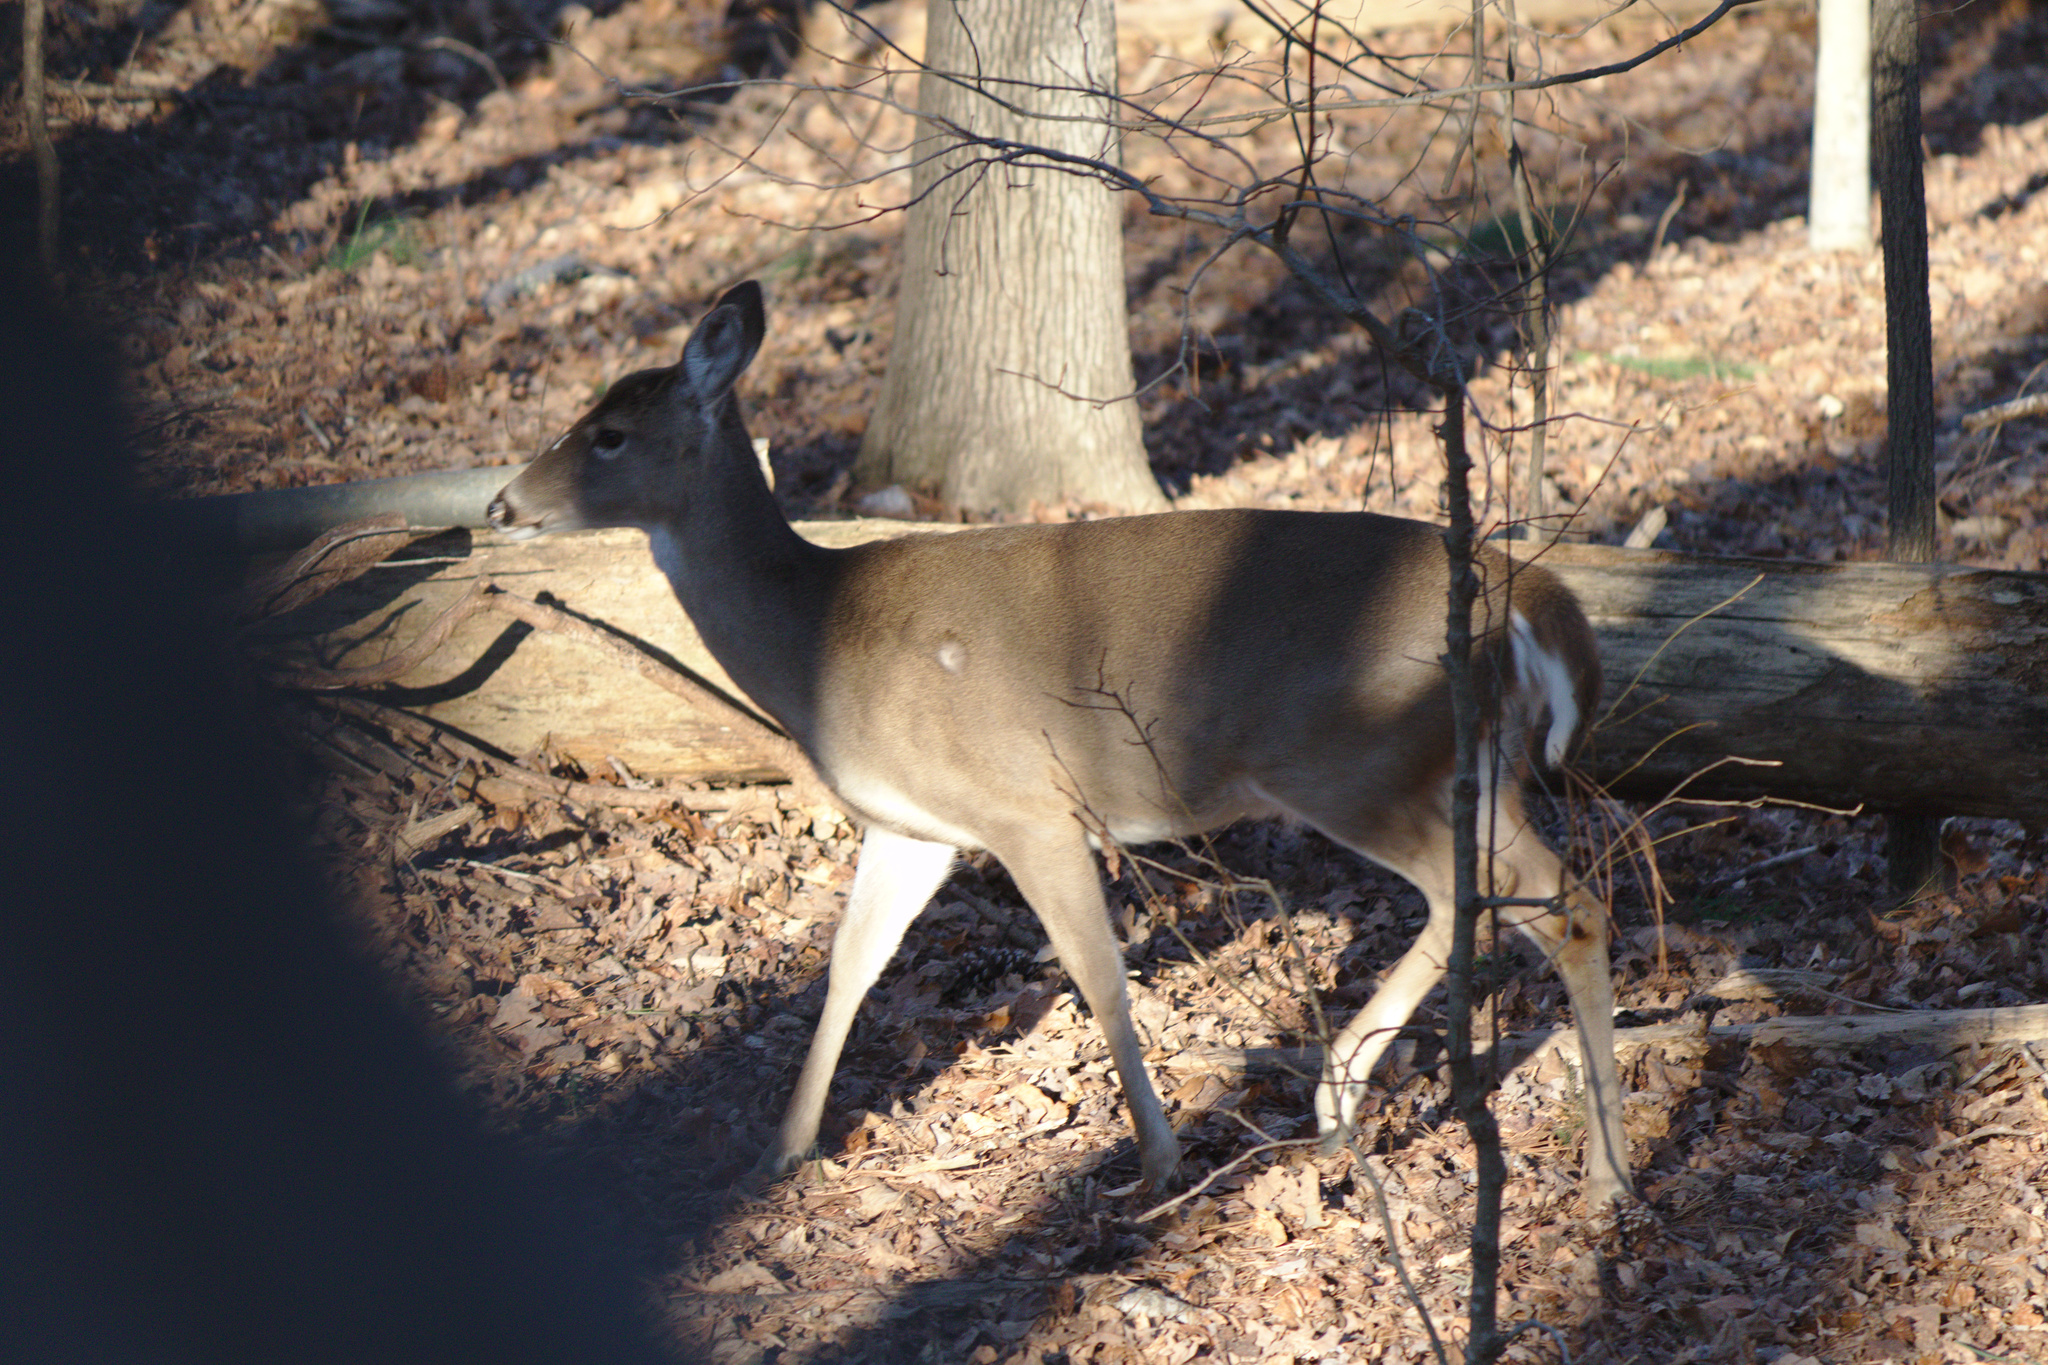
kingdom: Animalia
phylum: Chordata
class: Mammalia
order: Artiodactyla
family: Cervidae
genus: Odocoileus
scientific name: Odocoileus virginianus
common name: White-tailed deer
